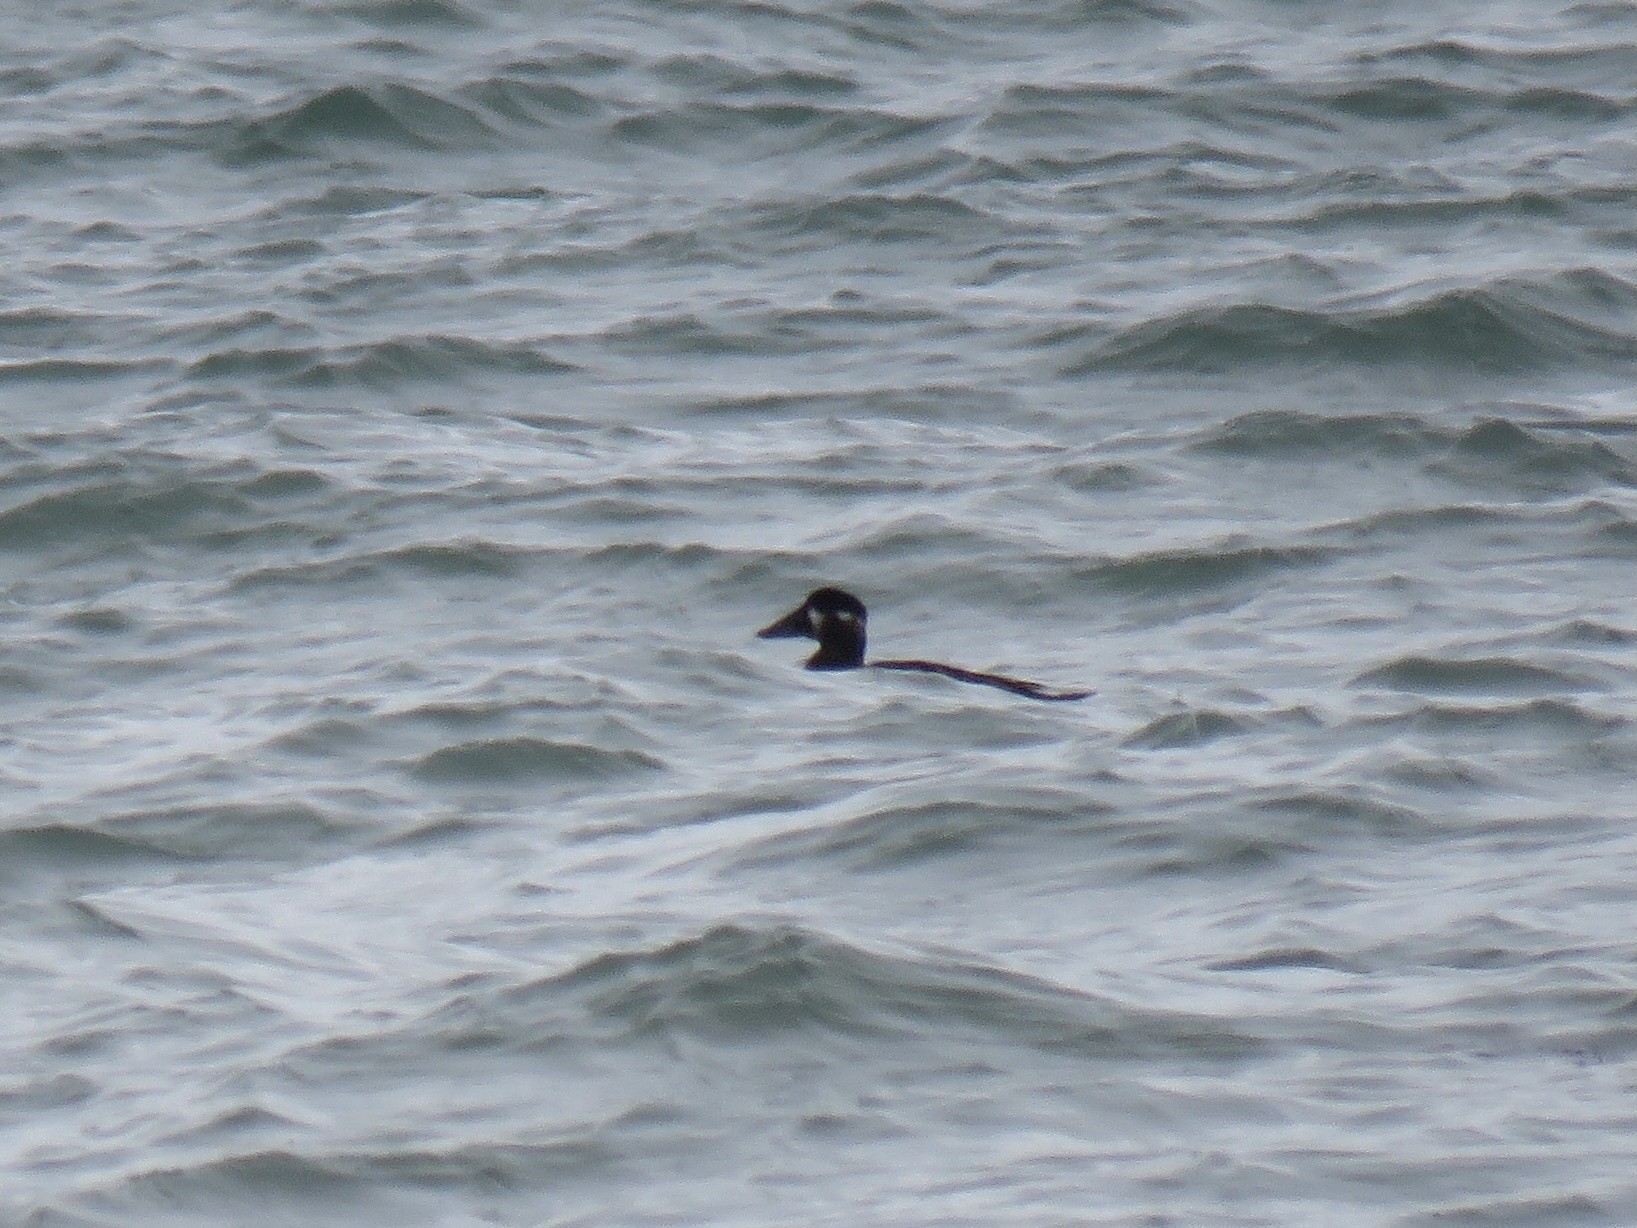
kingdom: Animalia
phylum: Chordata
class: Aves
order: Anseriformes
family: Anatidae
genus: Melanitta
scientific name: Melanitta perspicillata
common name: Surf scoter
